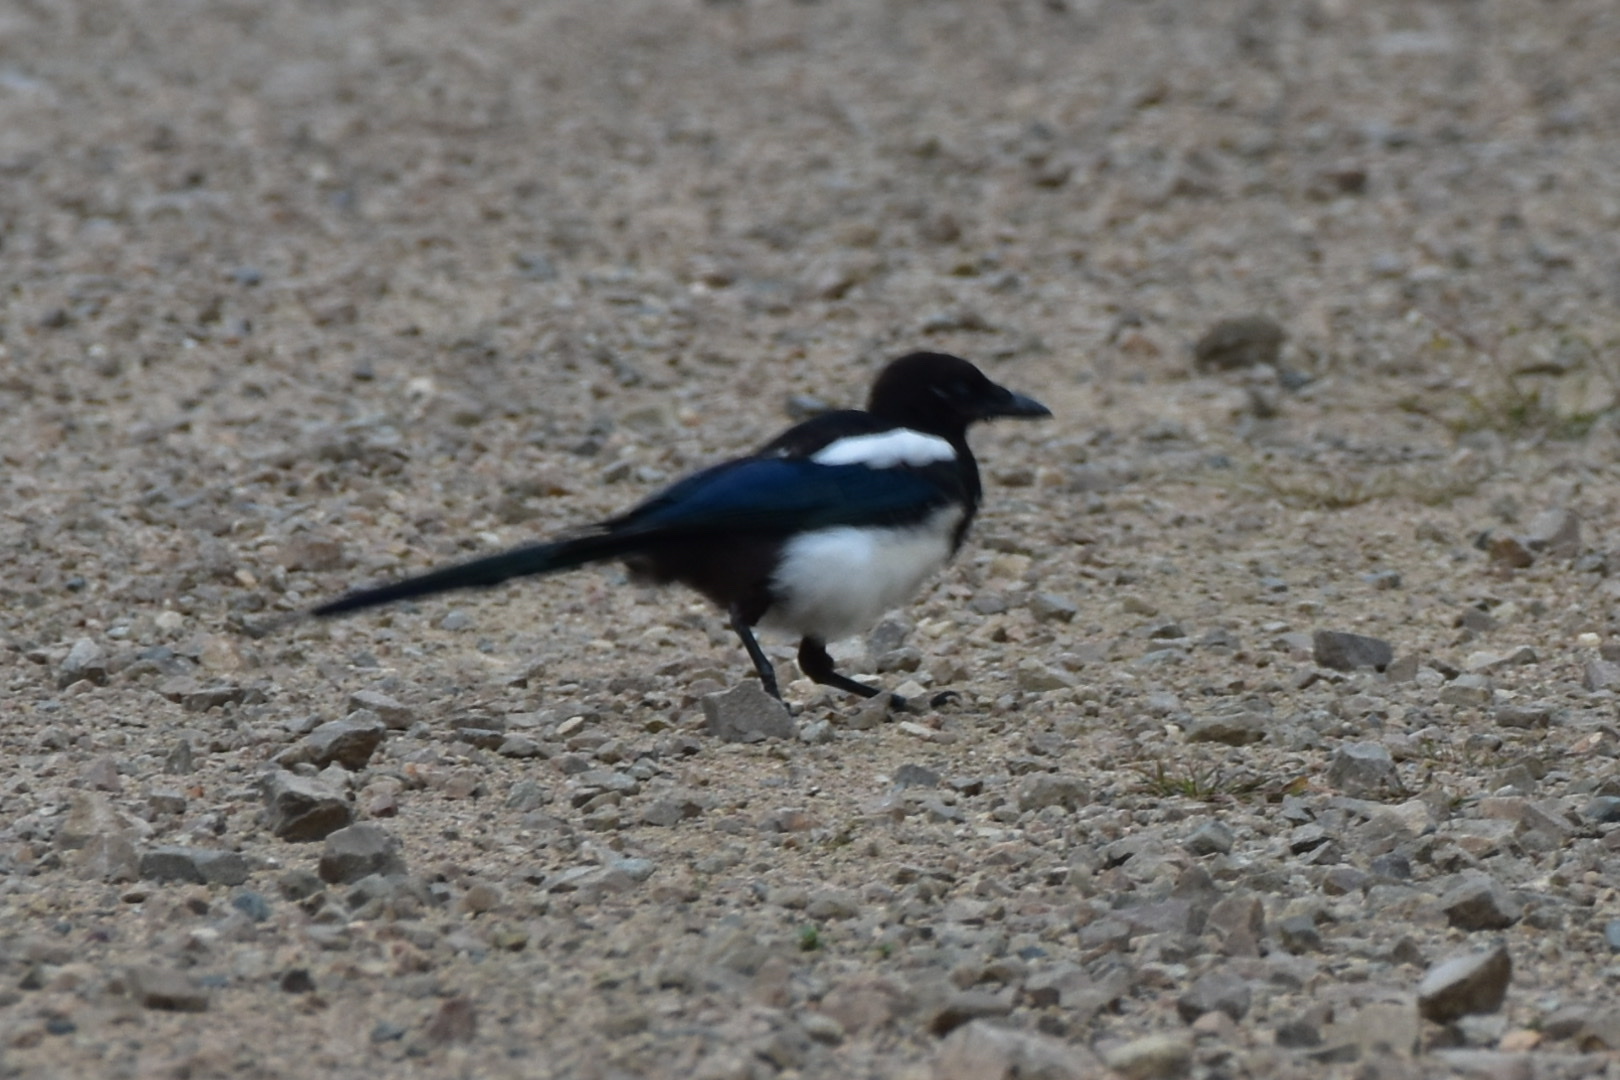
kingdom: Animalia
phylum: Chordata
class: Aves
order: Passeriformes
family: Corvidae
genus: Pica
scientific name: Pica serica
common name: Oriental magpie
